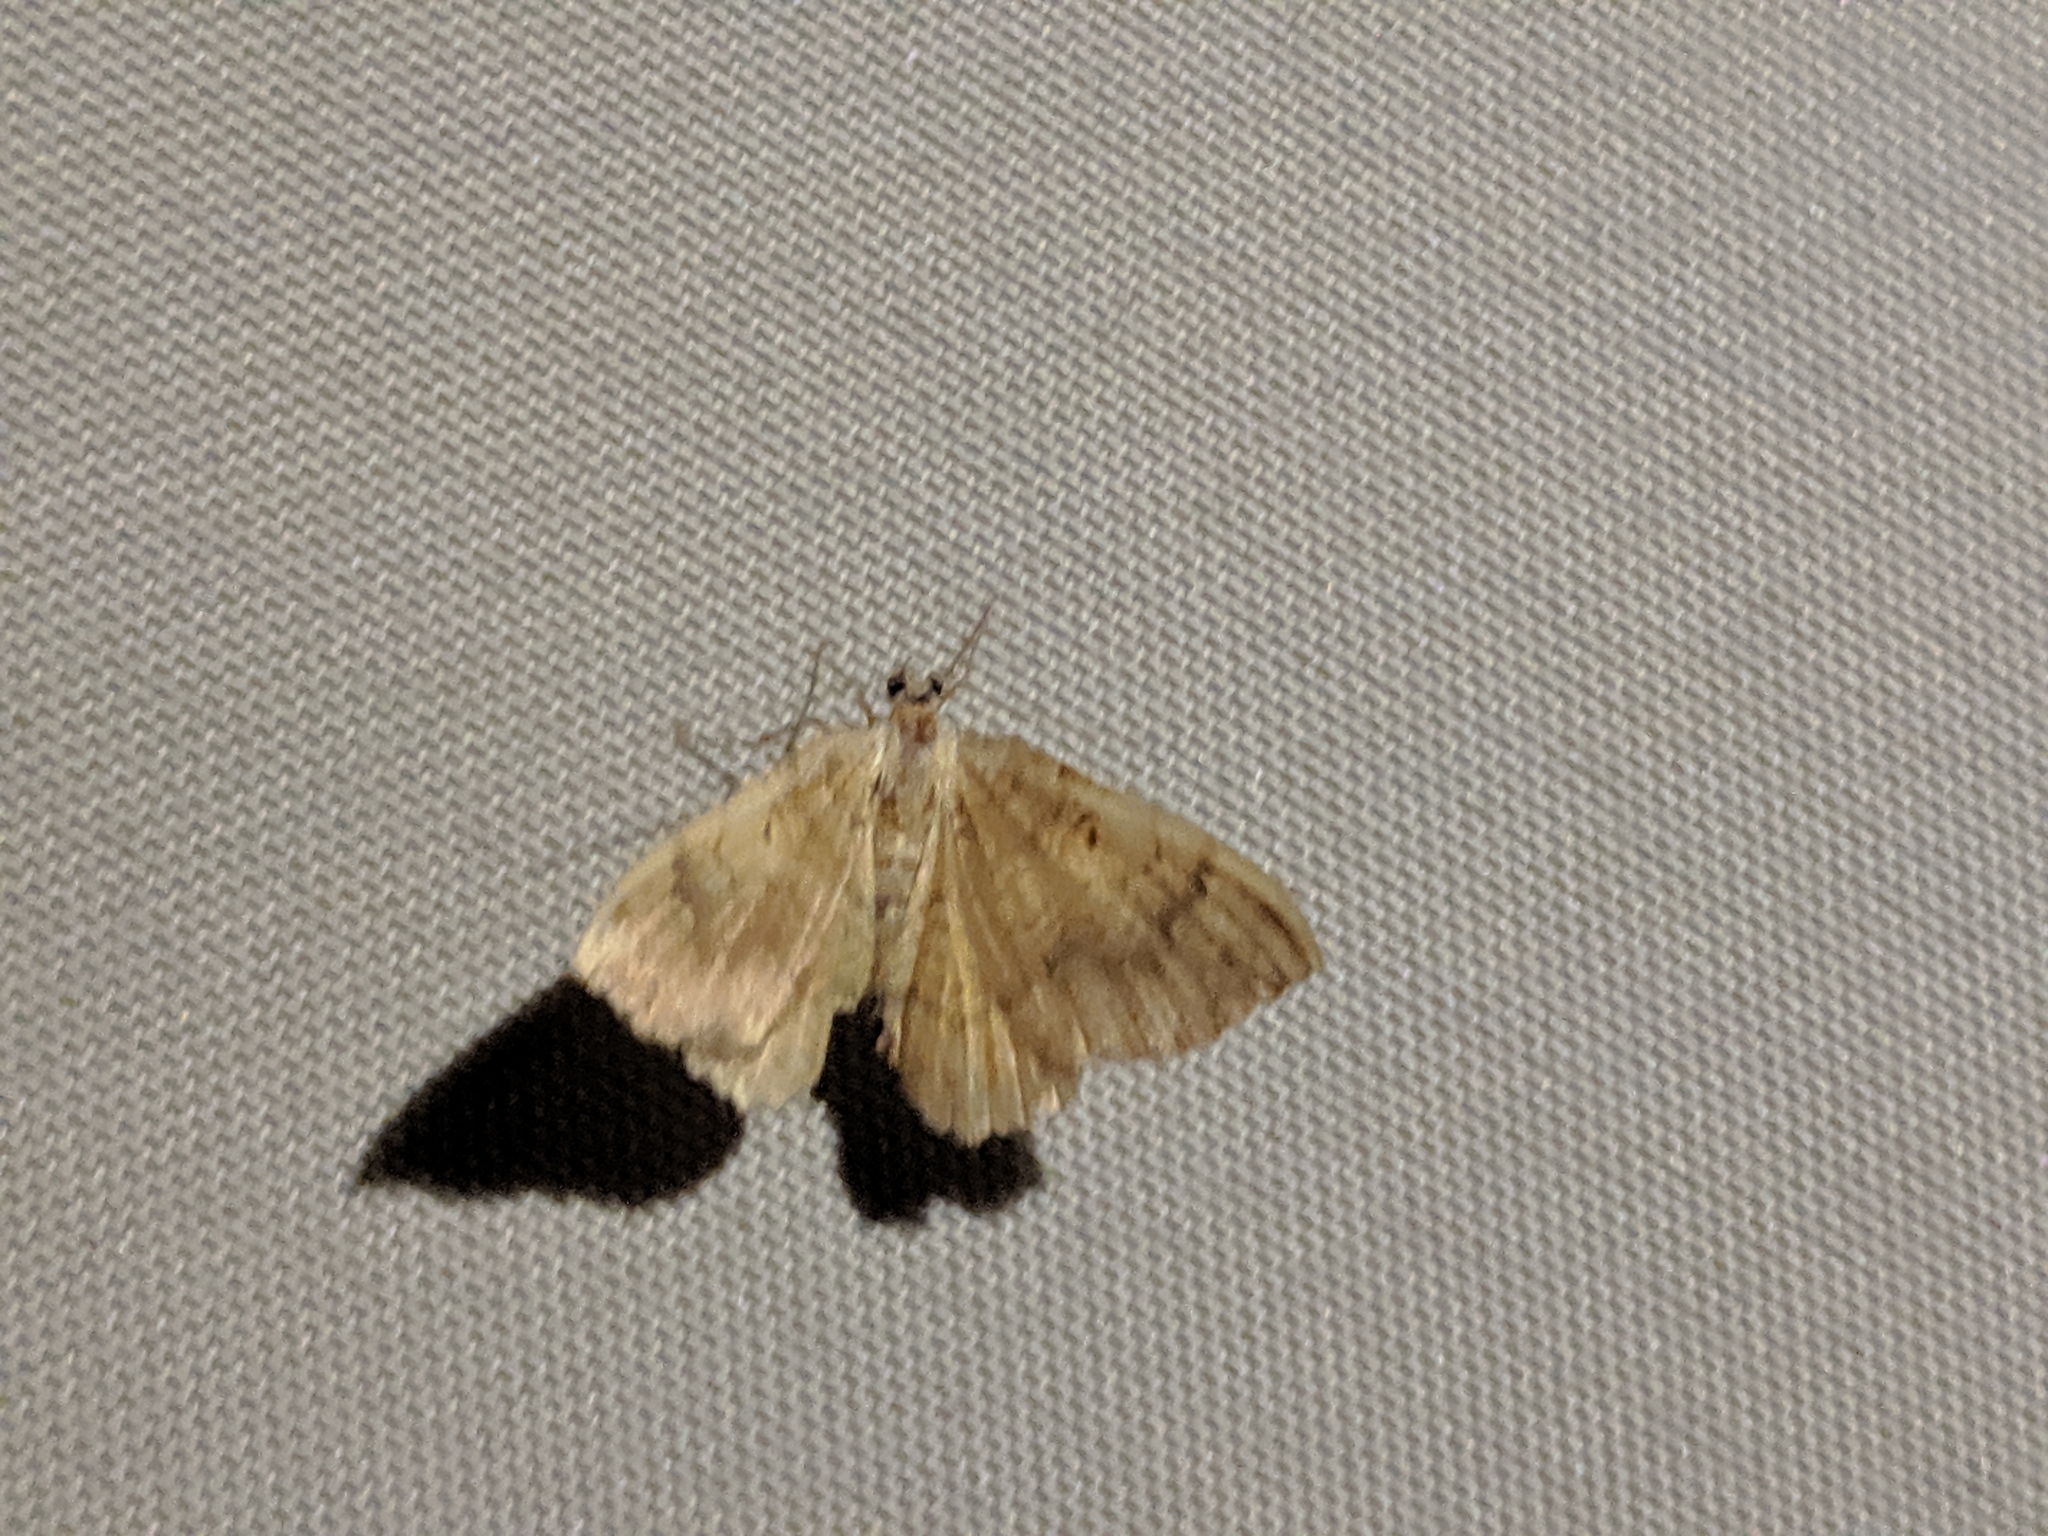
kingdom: Animalia
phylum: Arthropoda
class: Insecta
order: Lepidoptera
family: Geometridae
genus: Camptogramma
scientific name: Camptogramma bilineata
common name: Yellow shell
